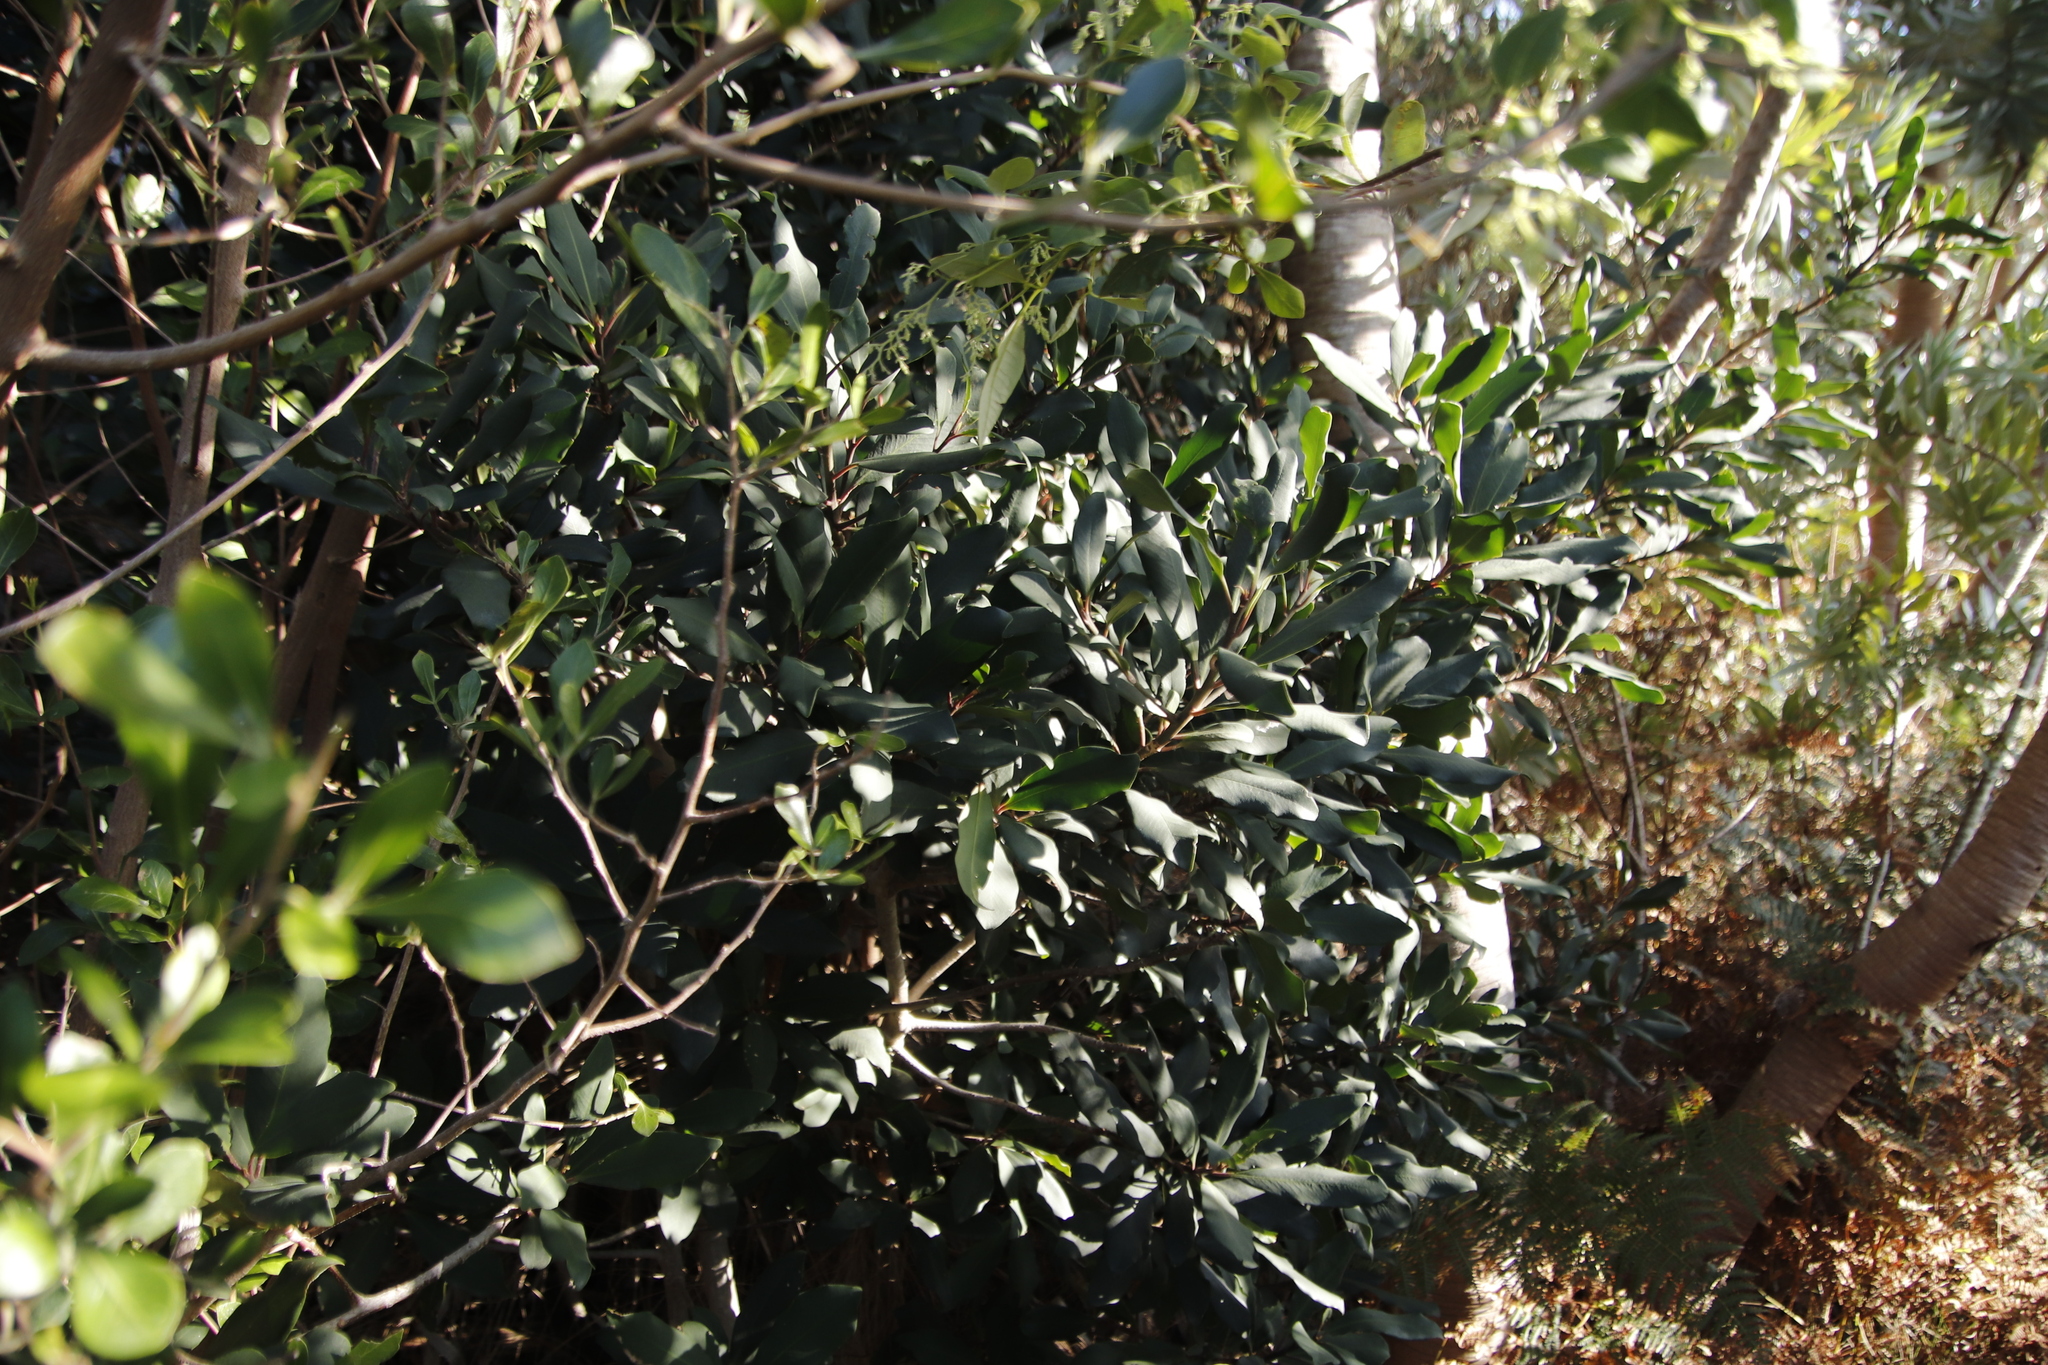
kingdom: Plantae
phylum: Tracheophyta
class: Magnoliopsida
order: Ericales
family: Primulaceae
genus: Myrsine
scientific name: Myrsine melanophloeos
